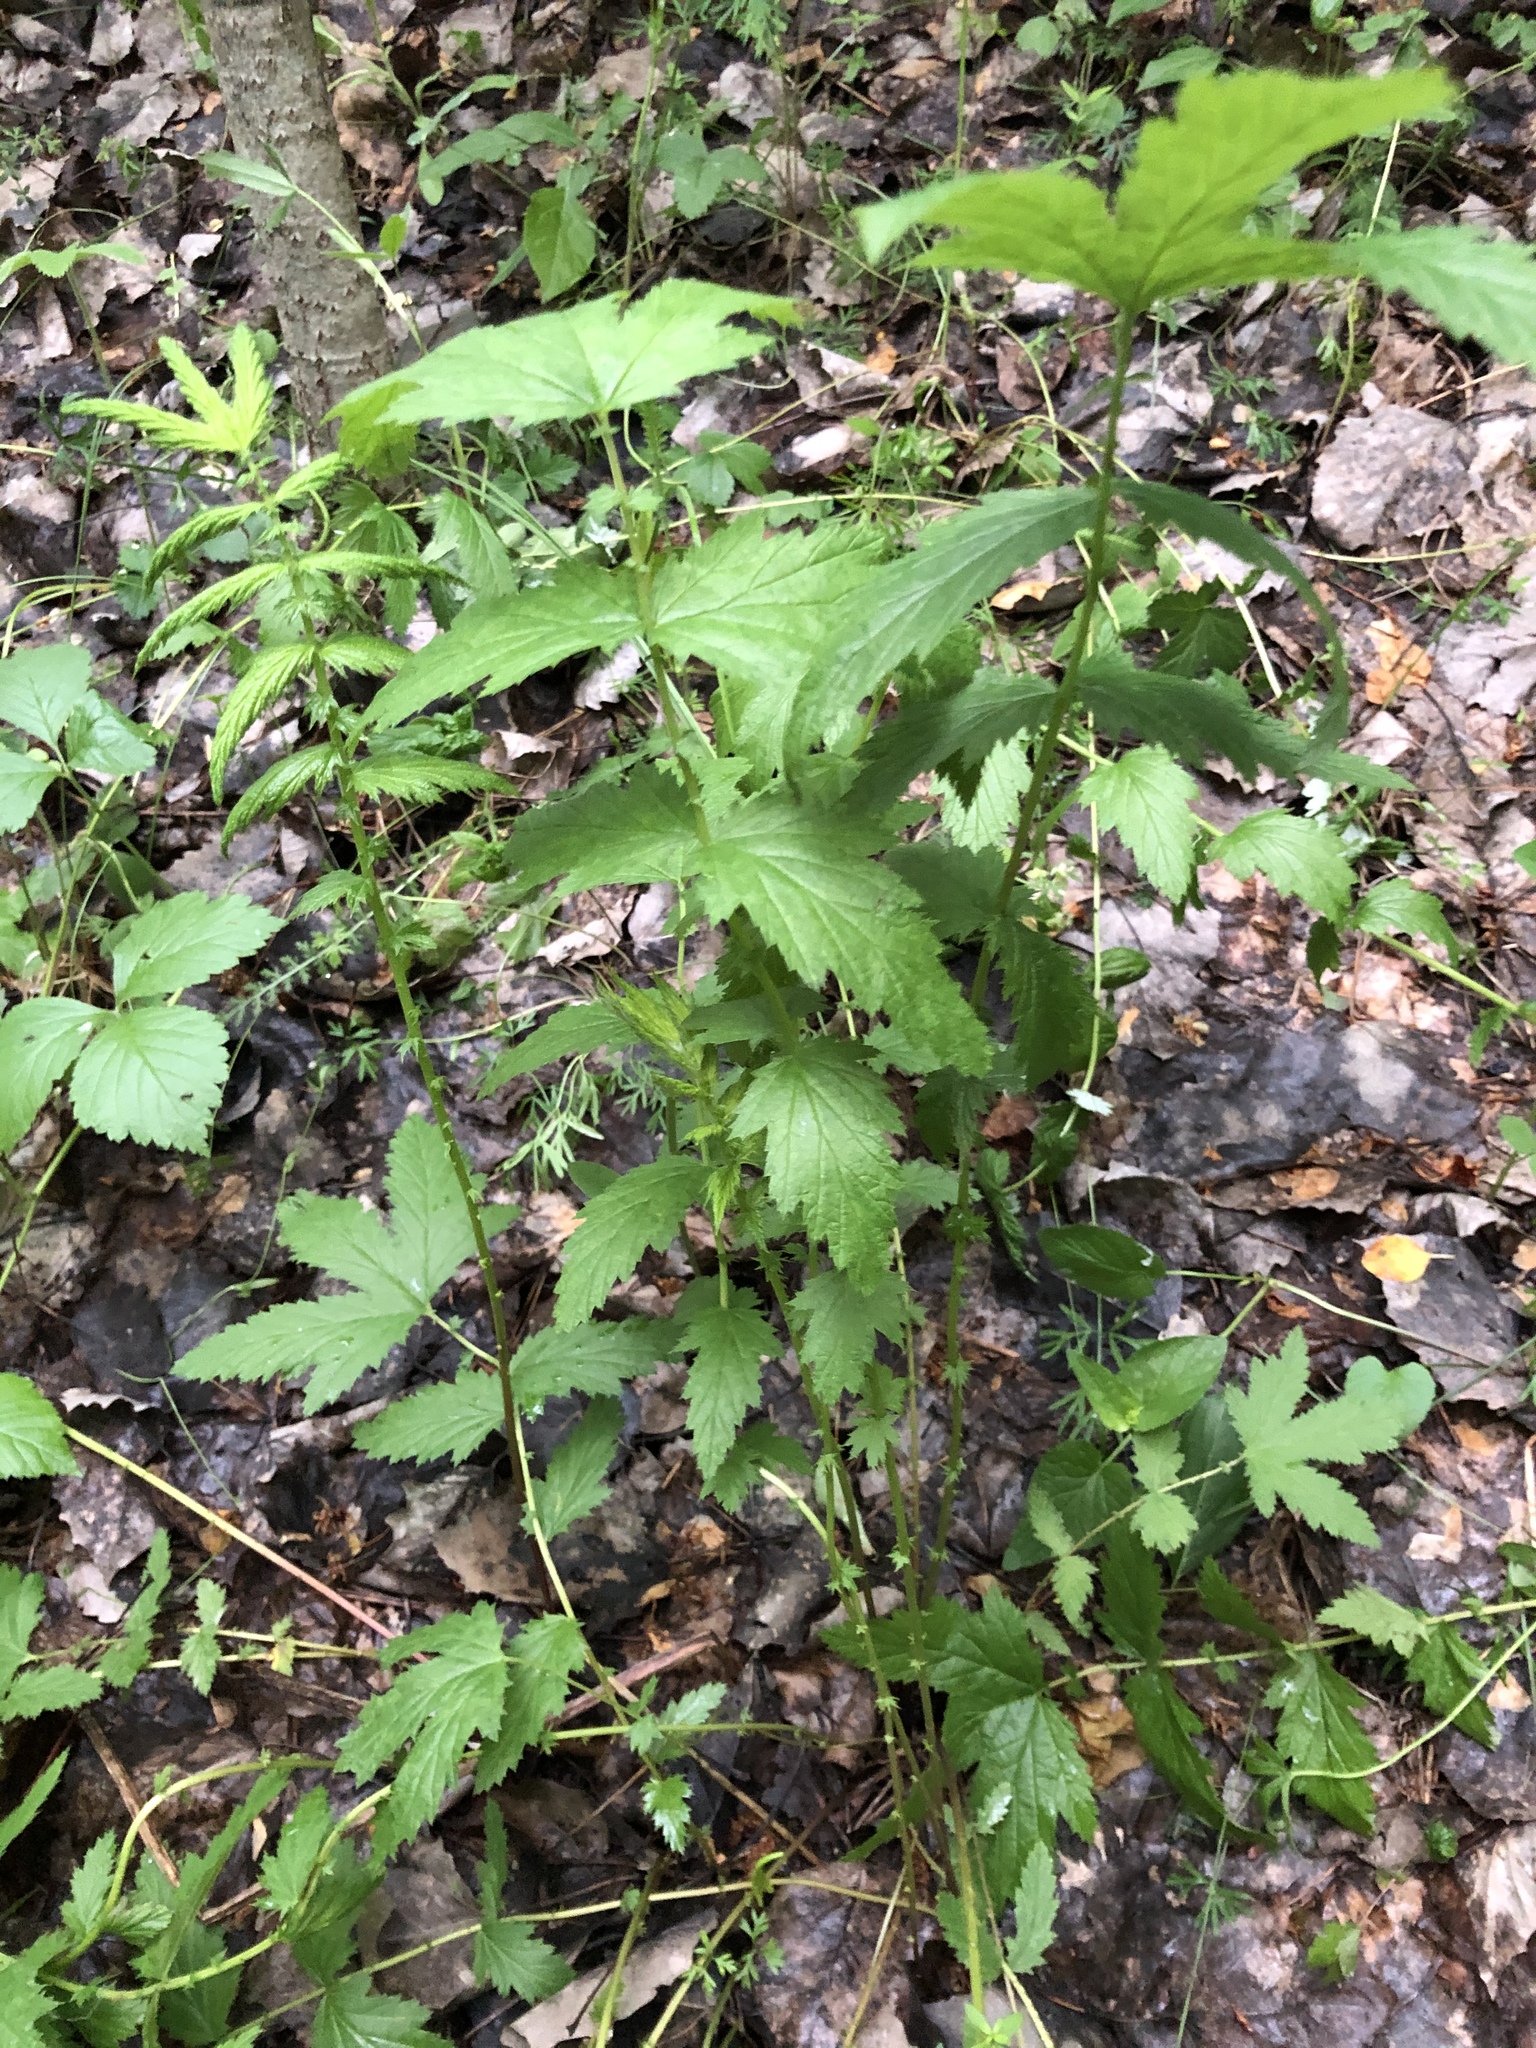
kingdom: Plantae
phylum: Tracheophyta
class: Magnoliopsida
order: Rosales
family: Rosaceae
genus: Filipendula
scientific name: Filipendula ulmaria
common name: Meadowsweet
